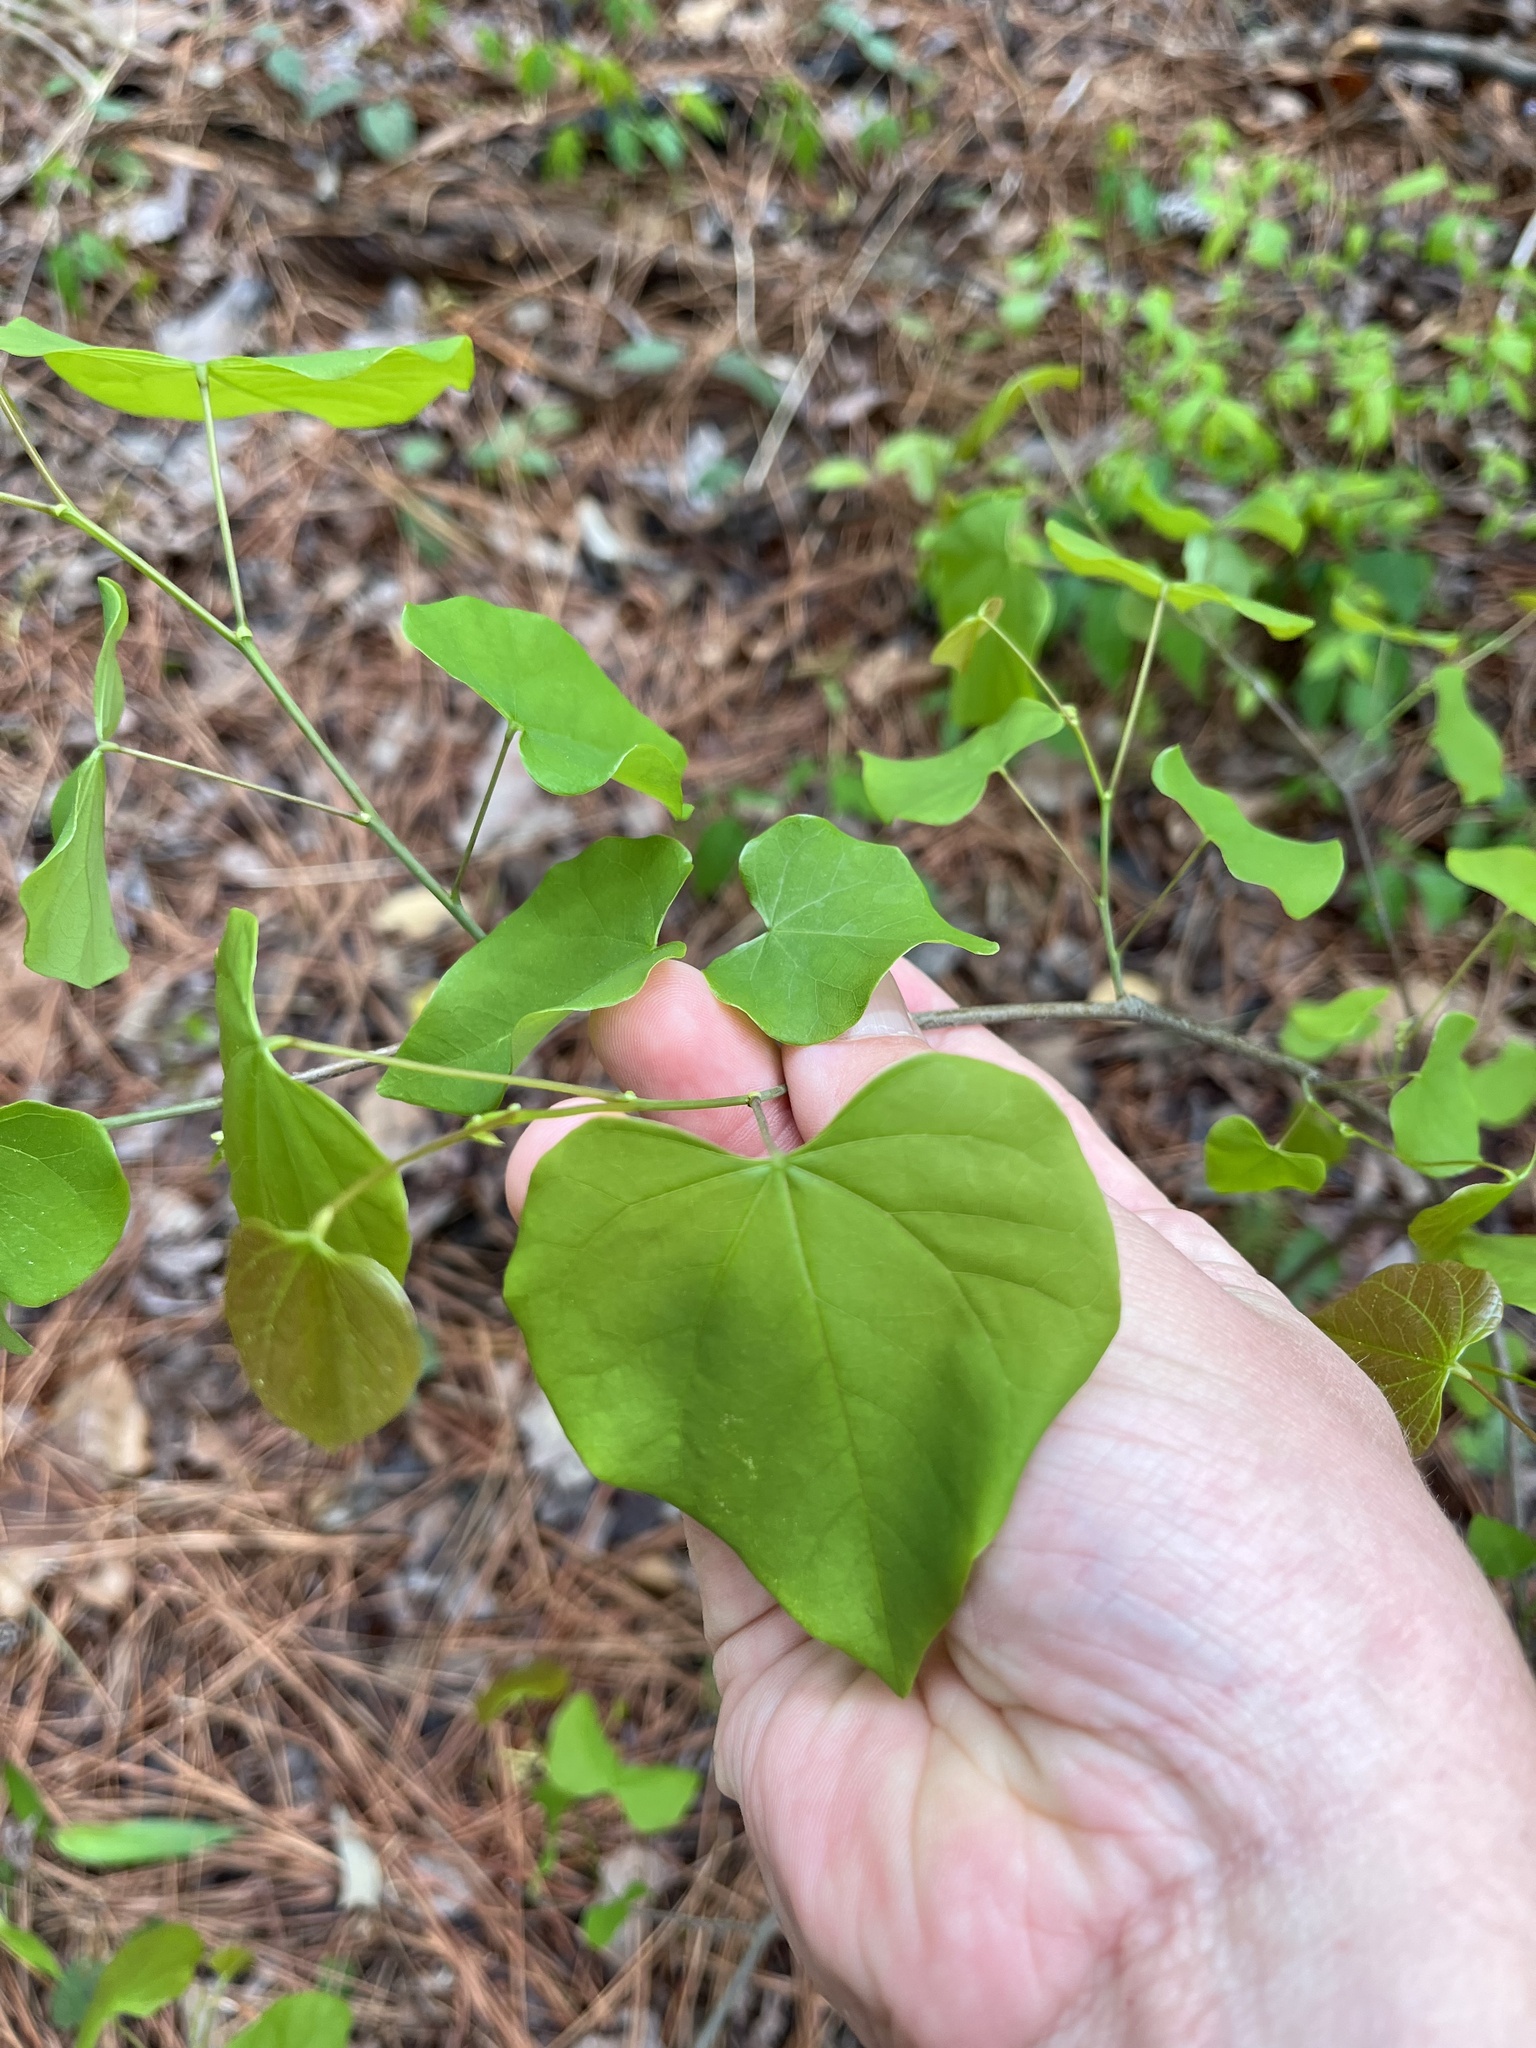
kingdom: Plantae
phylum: Tracheophyta
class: Magnoliopsida
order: Fabales
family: Fabaceae
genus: Cercis
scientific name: Cercis canadensis
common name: Eastern redbud
